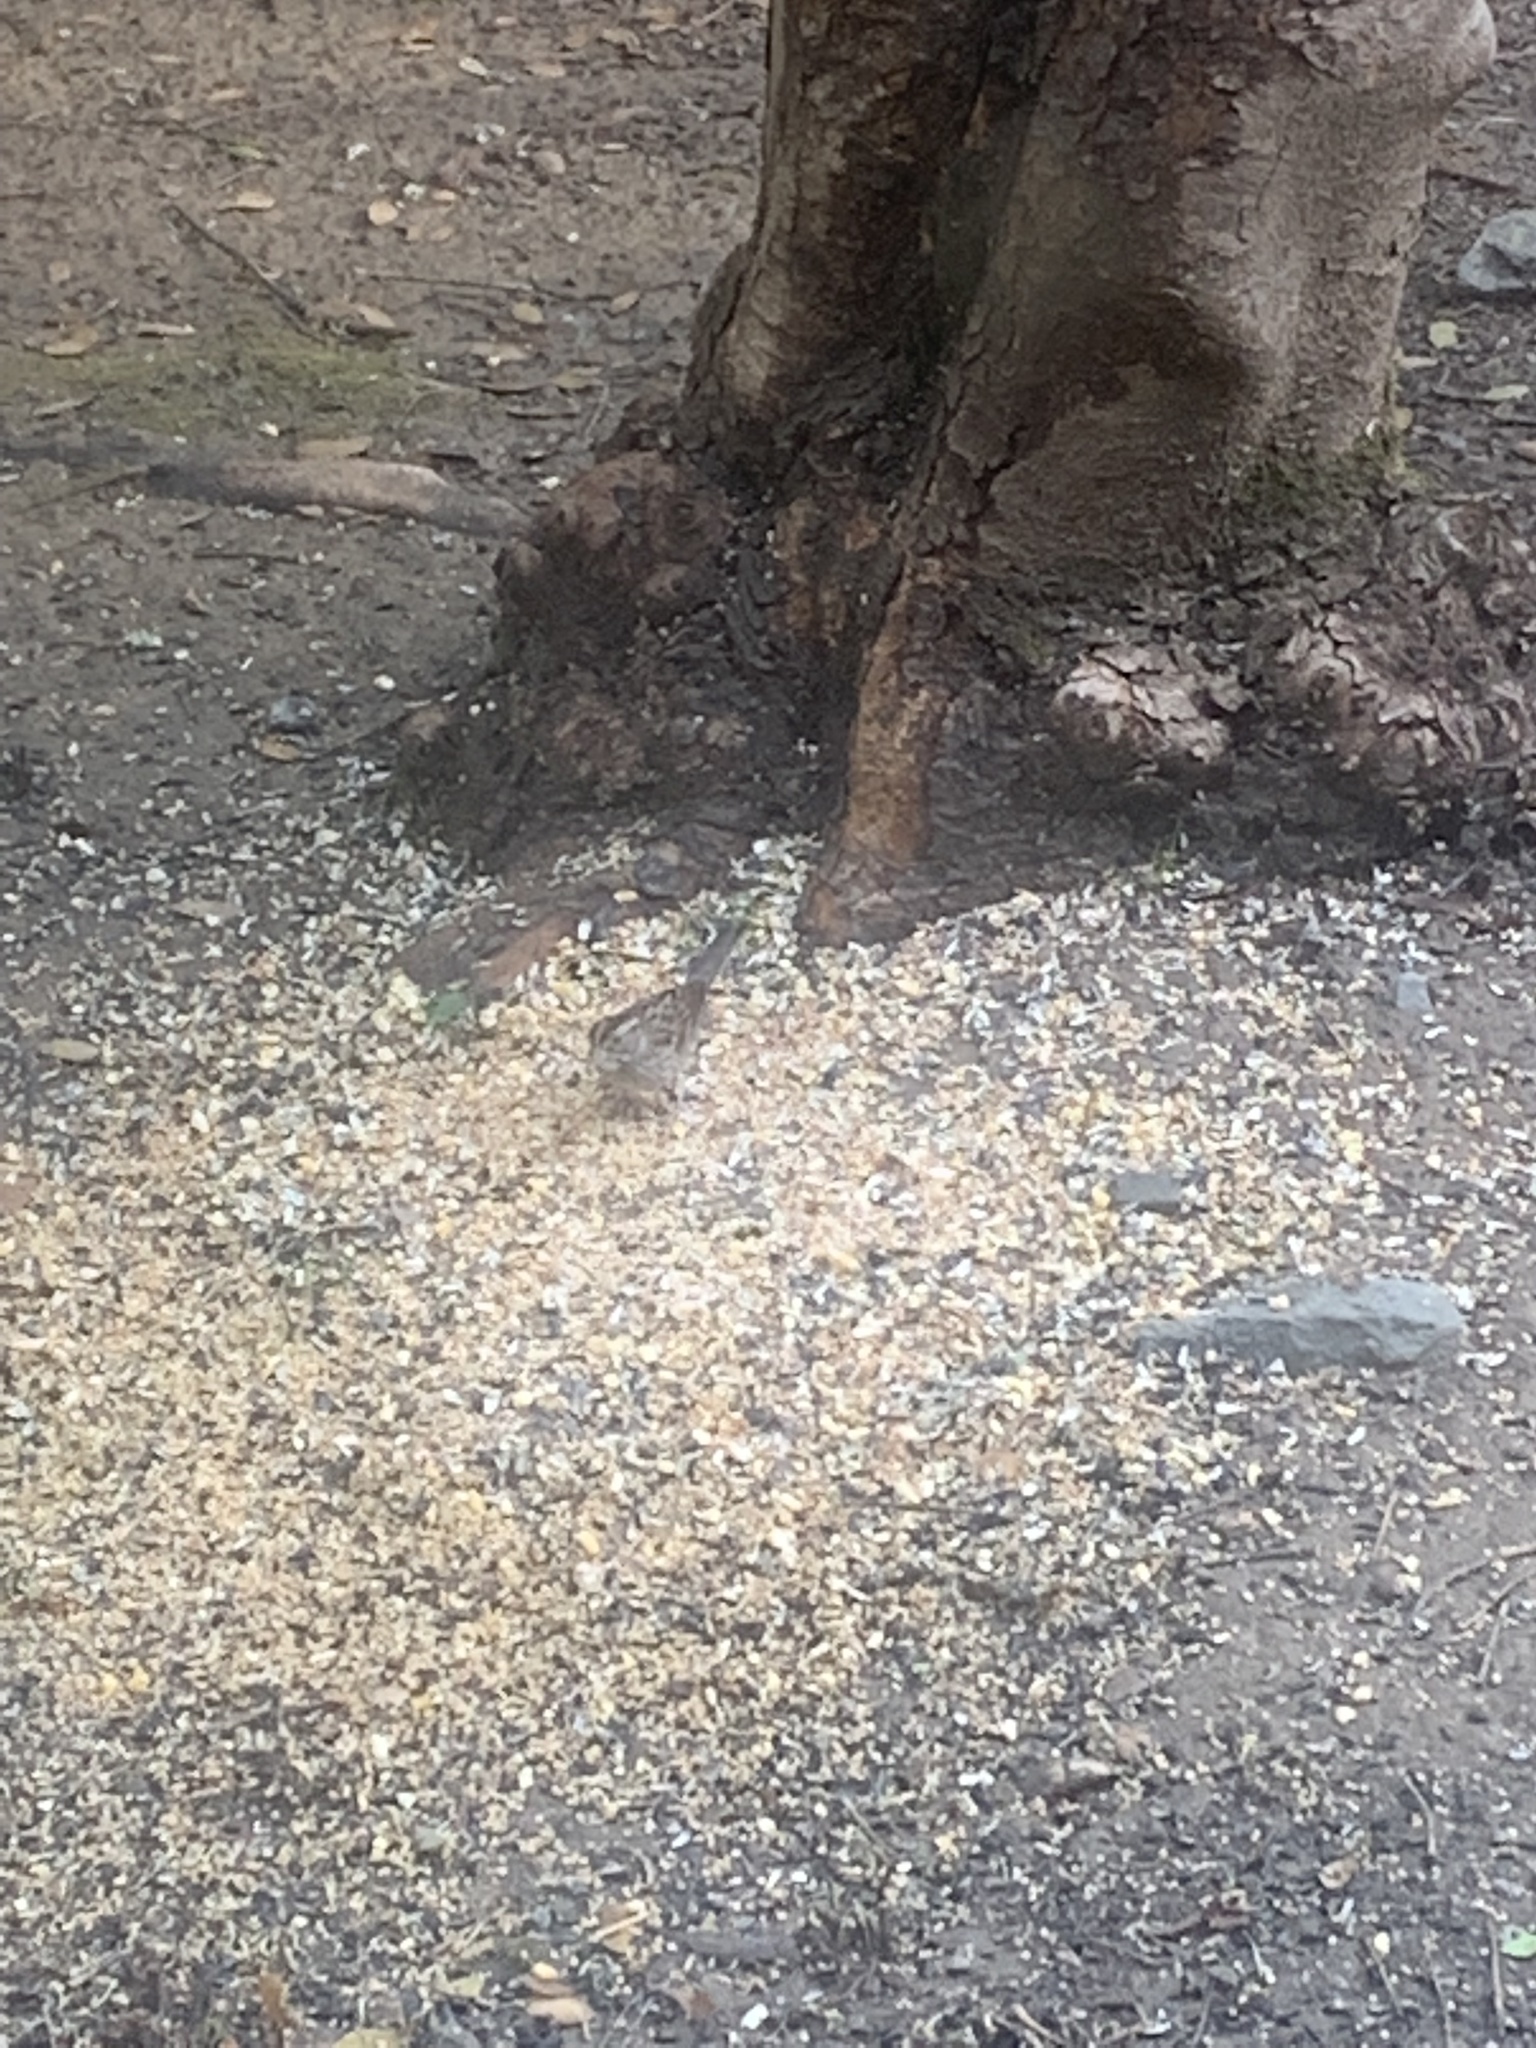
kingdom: Animalia
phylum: Chordata
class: Aves
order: Passeriformes
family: Passerellidae
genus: Zonotrichia
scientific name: Zonotrichia albicollis
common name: White-throated sparrow
